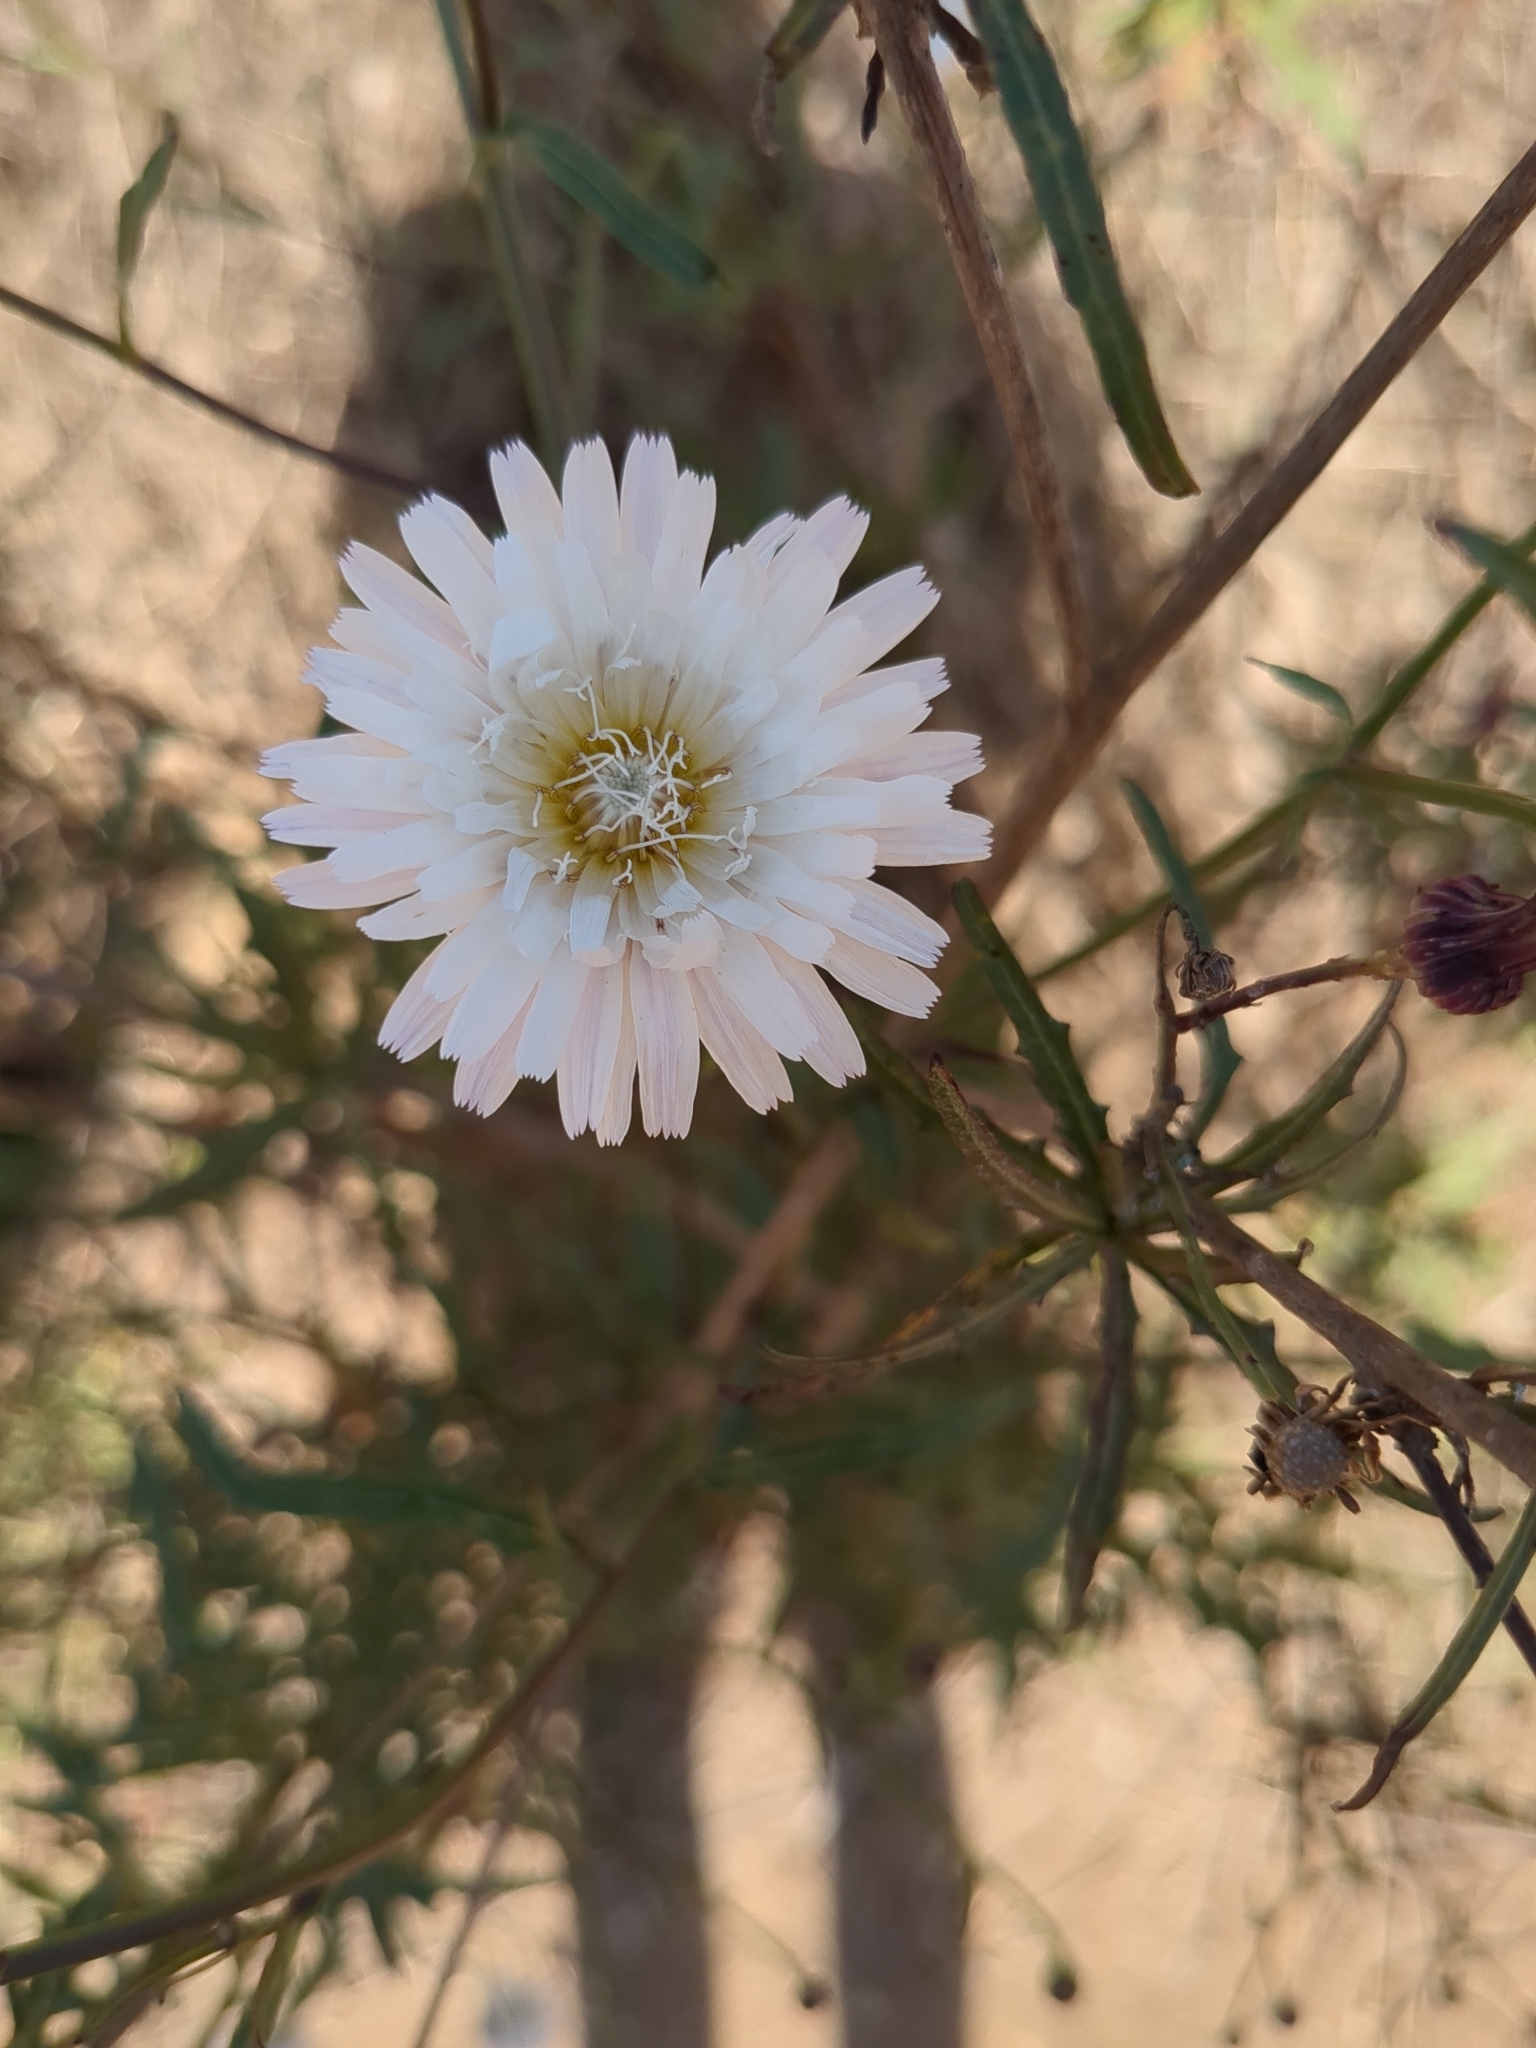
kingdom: Plantae
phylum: Tracheophyta
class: Magnoliopsida
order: Asterales
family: Asteraceae
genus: Malacothrix
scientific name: Malacothrix saxatilis
